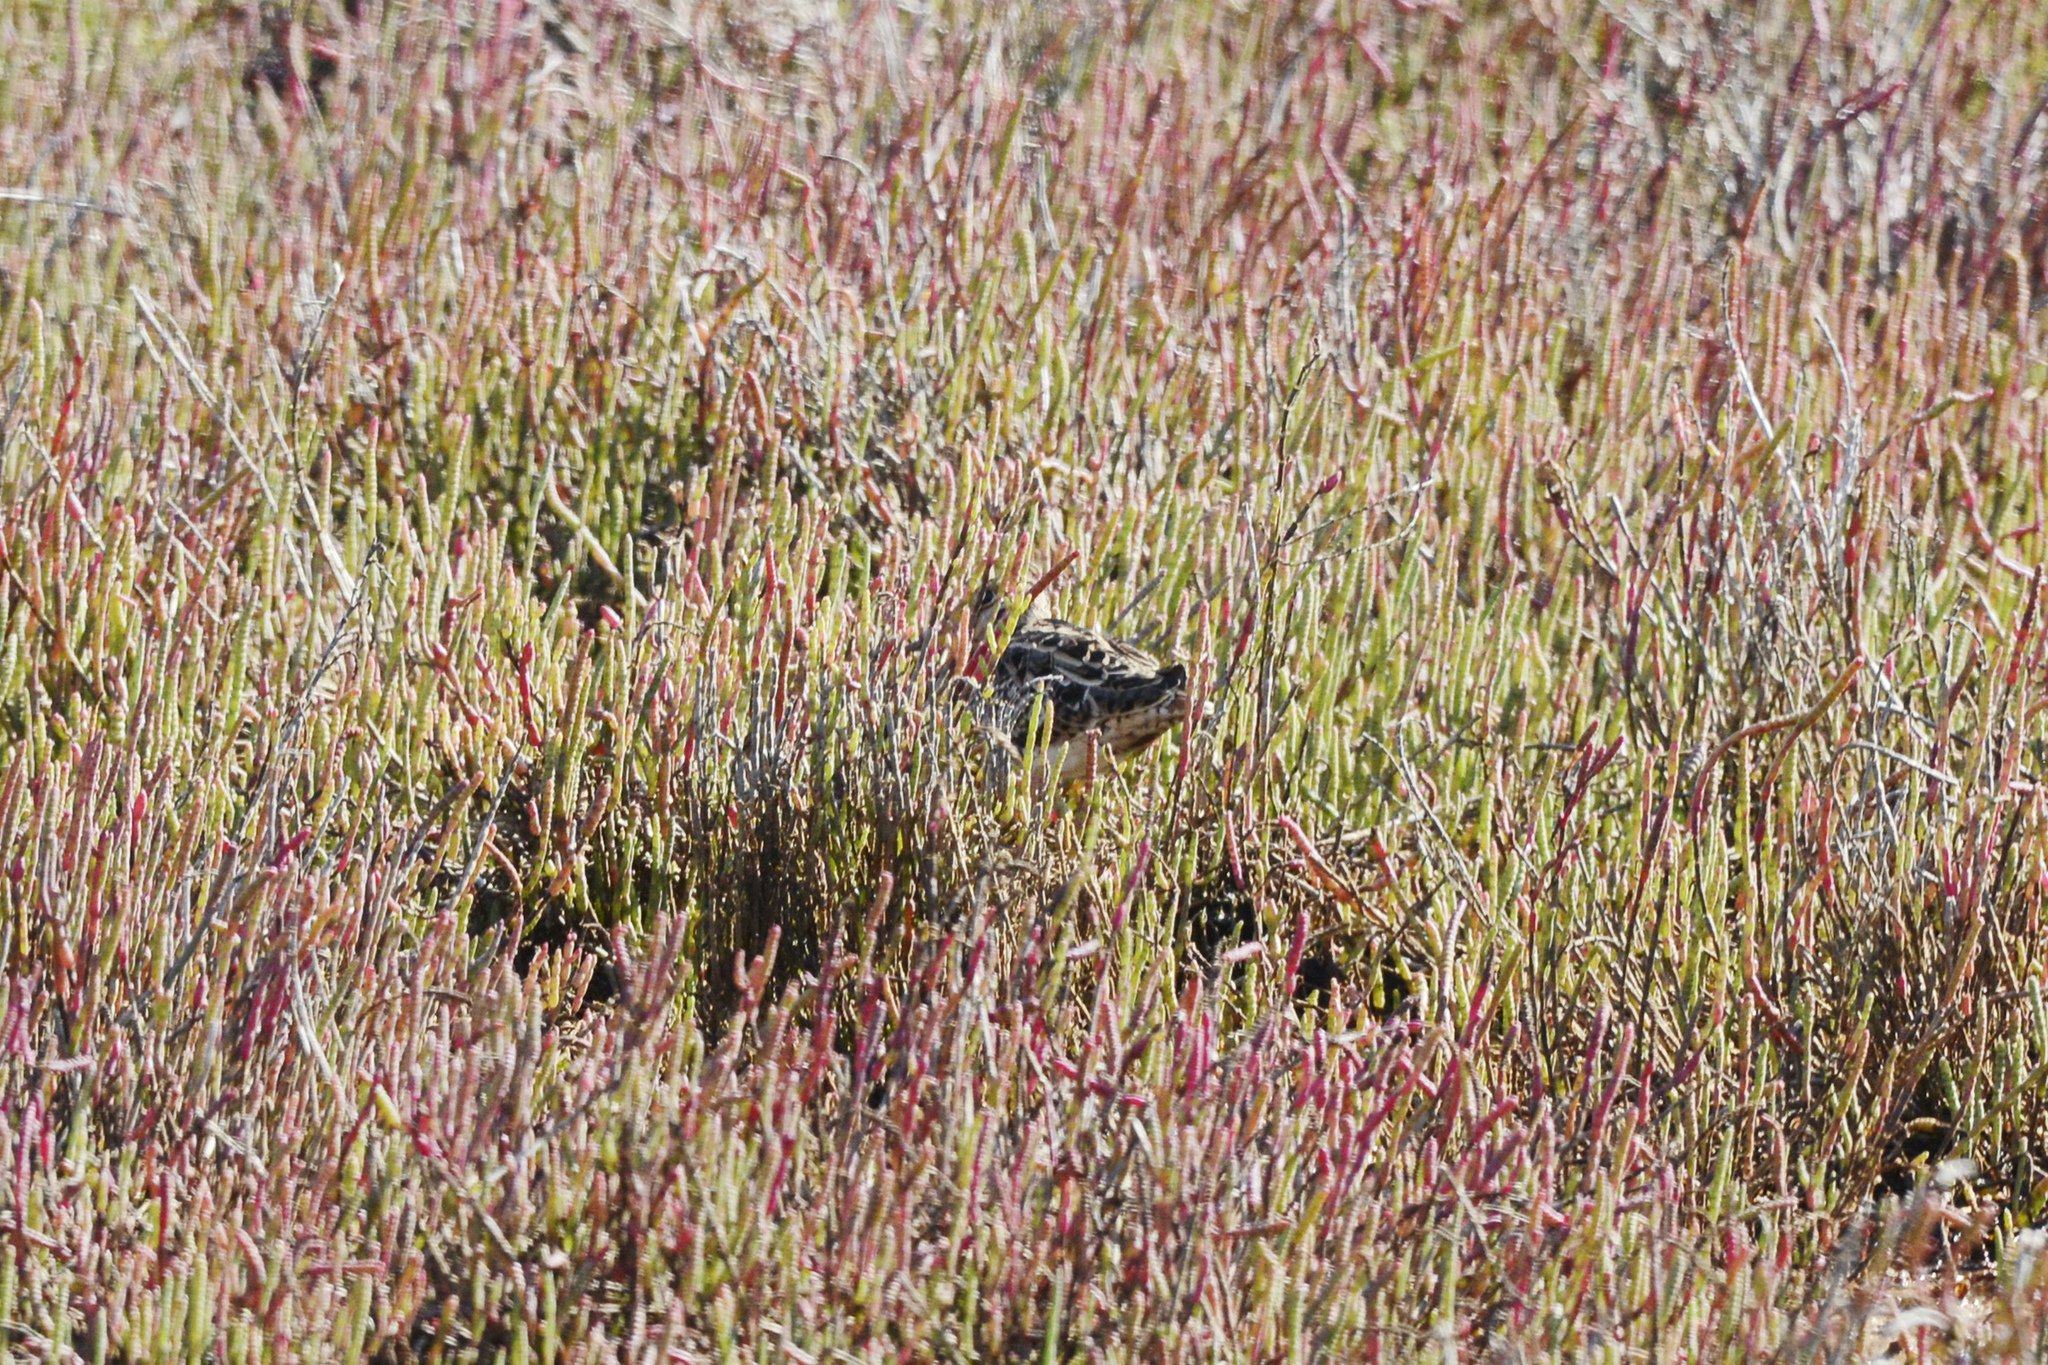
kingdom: Animalia
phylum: Chordata
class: Aves
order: Charadriiformes
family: Scolopacidae
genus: Gallinago
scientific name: Gallinago hardwickii
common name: Latham's snipe
